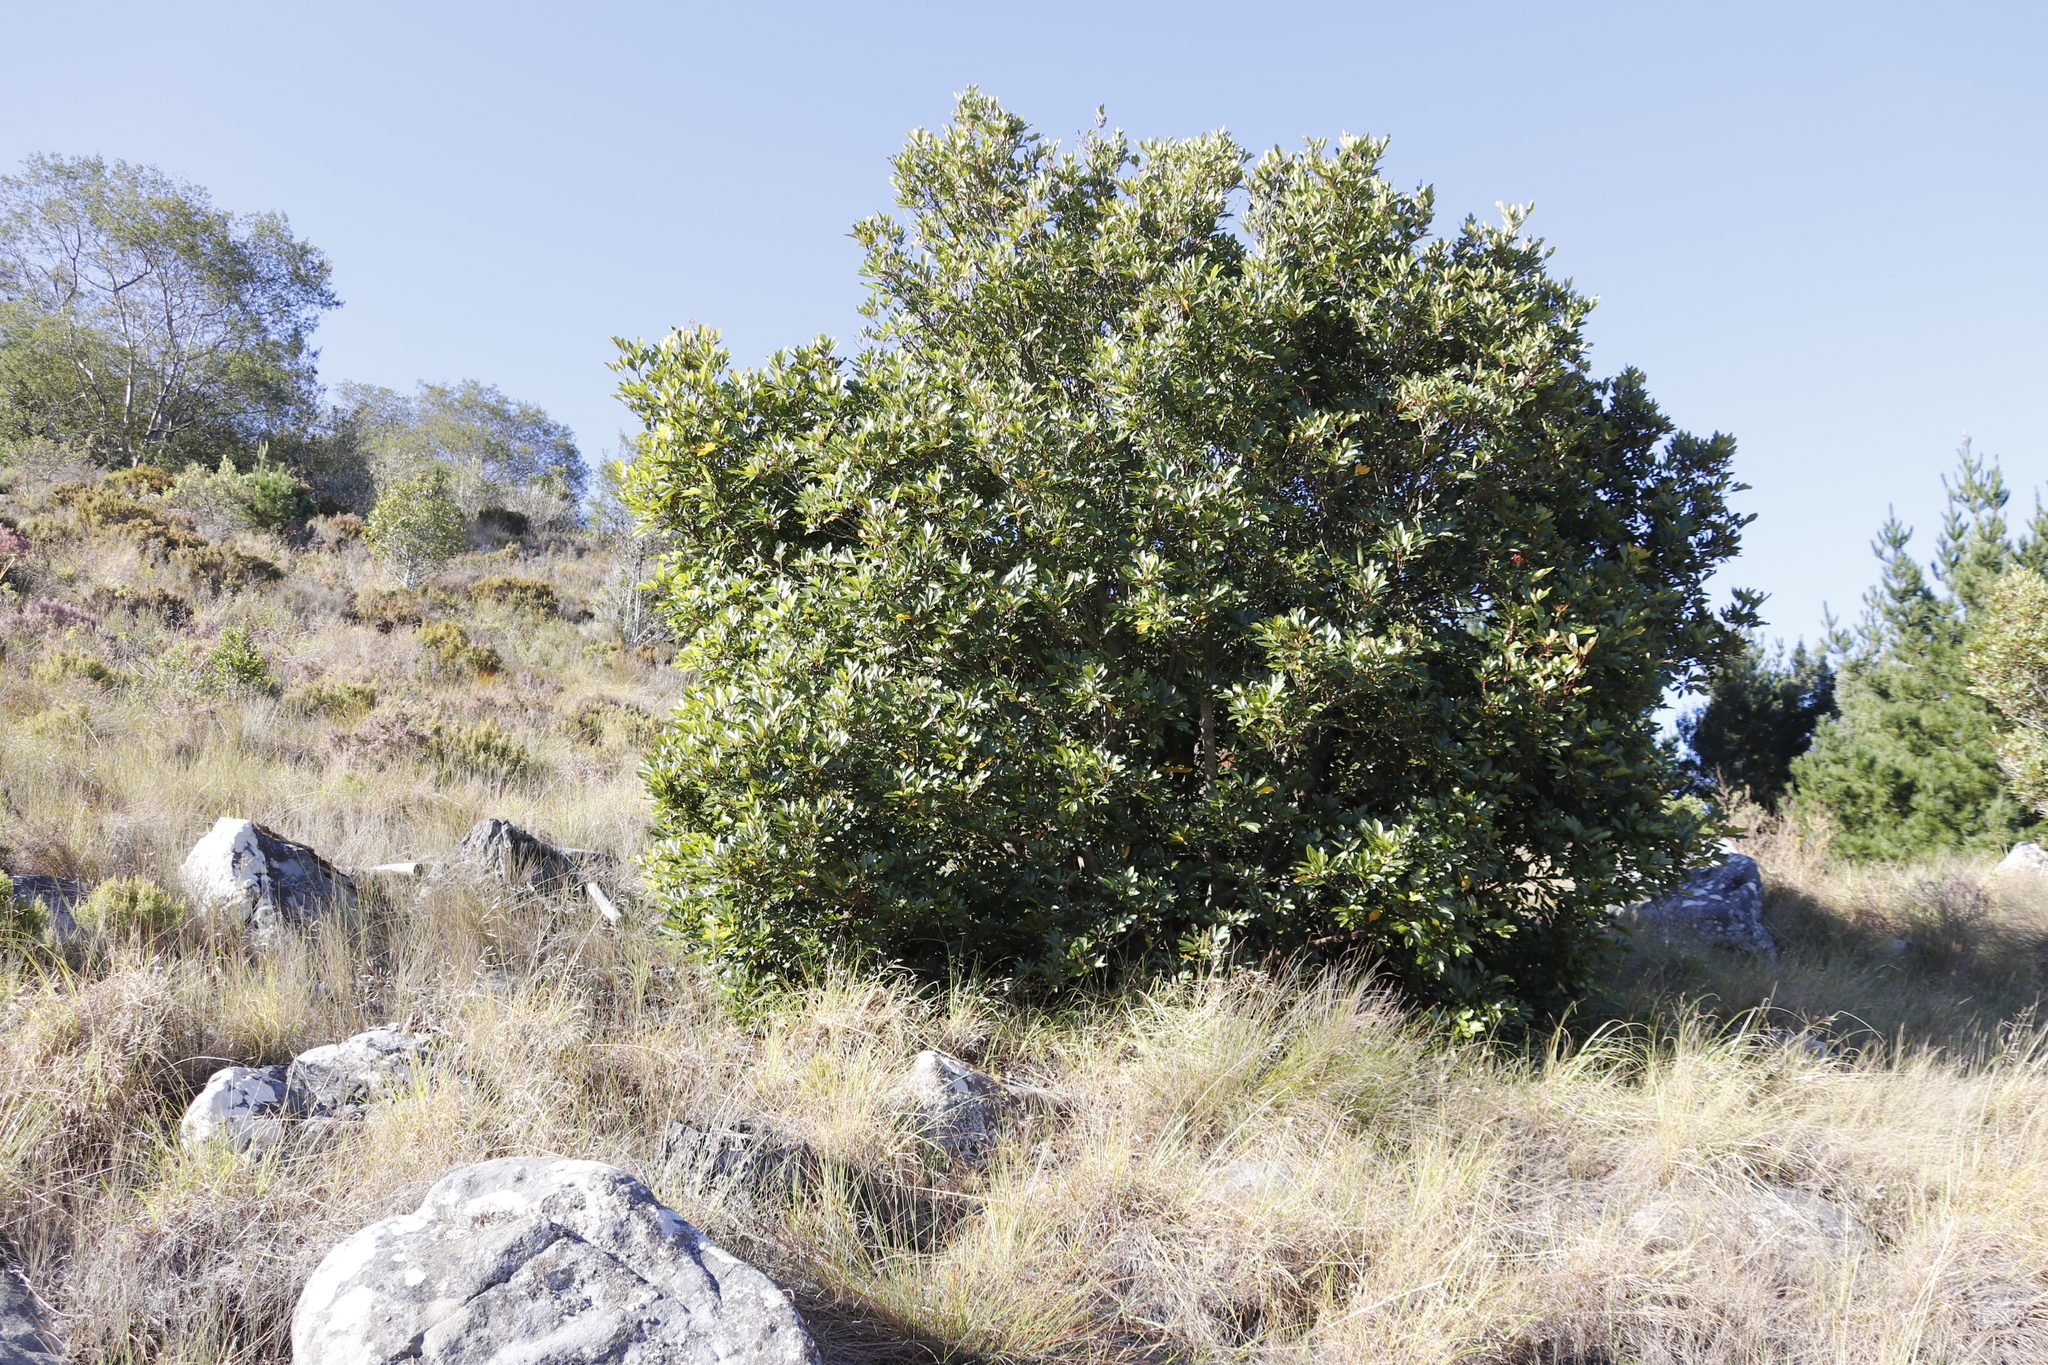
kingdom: Plantae
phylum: Tracheophyta
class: Magnoliopsida
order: Oxalidales
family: Cunoniaceae
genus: Cunonia
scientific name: Cunonia capensis
